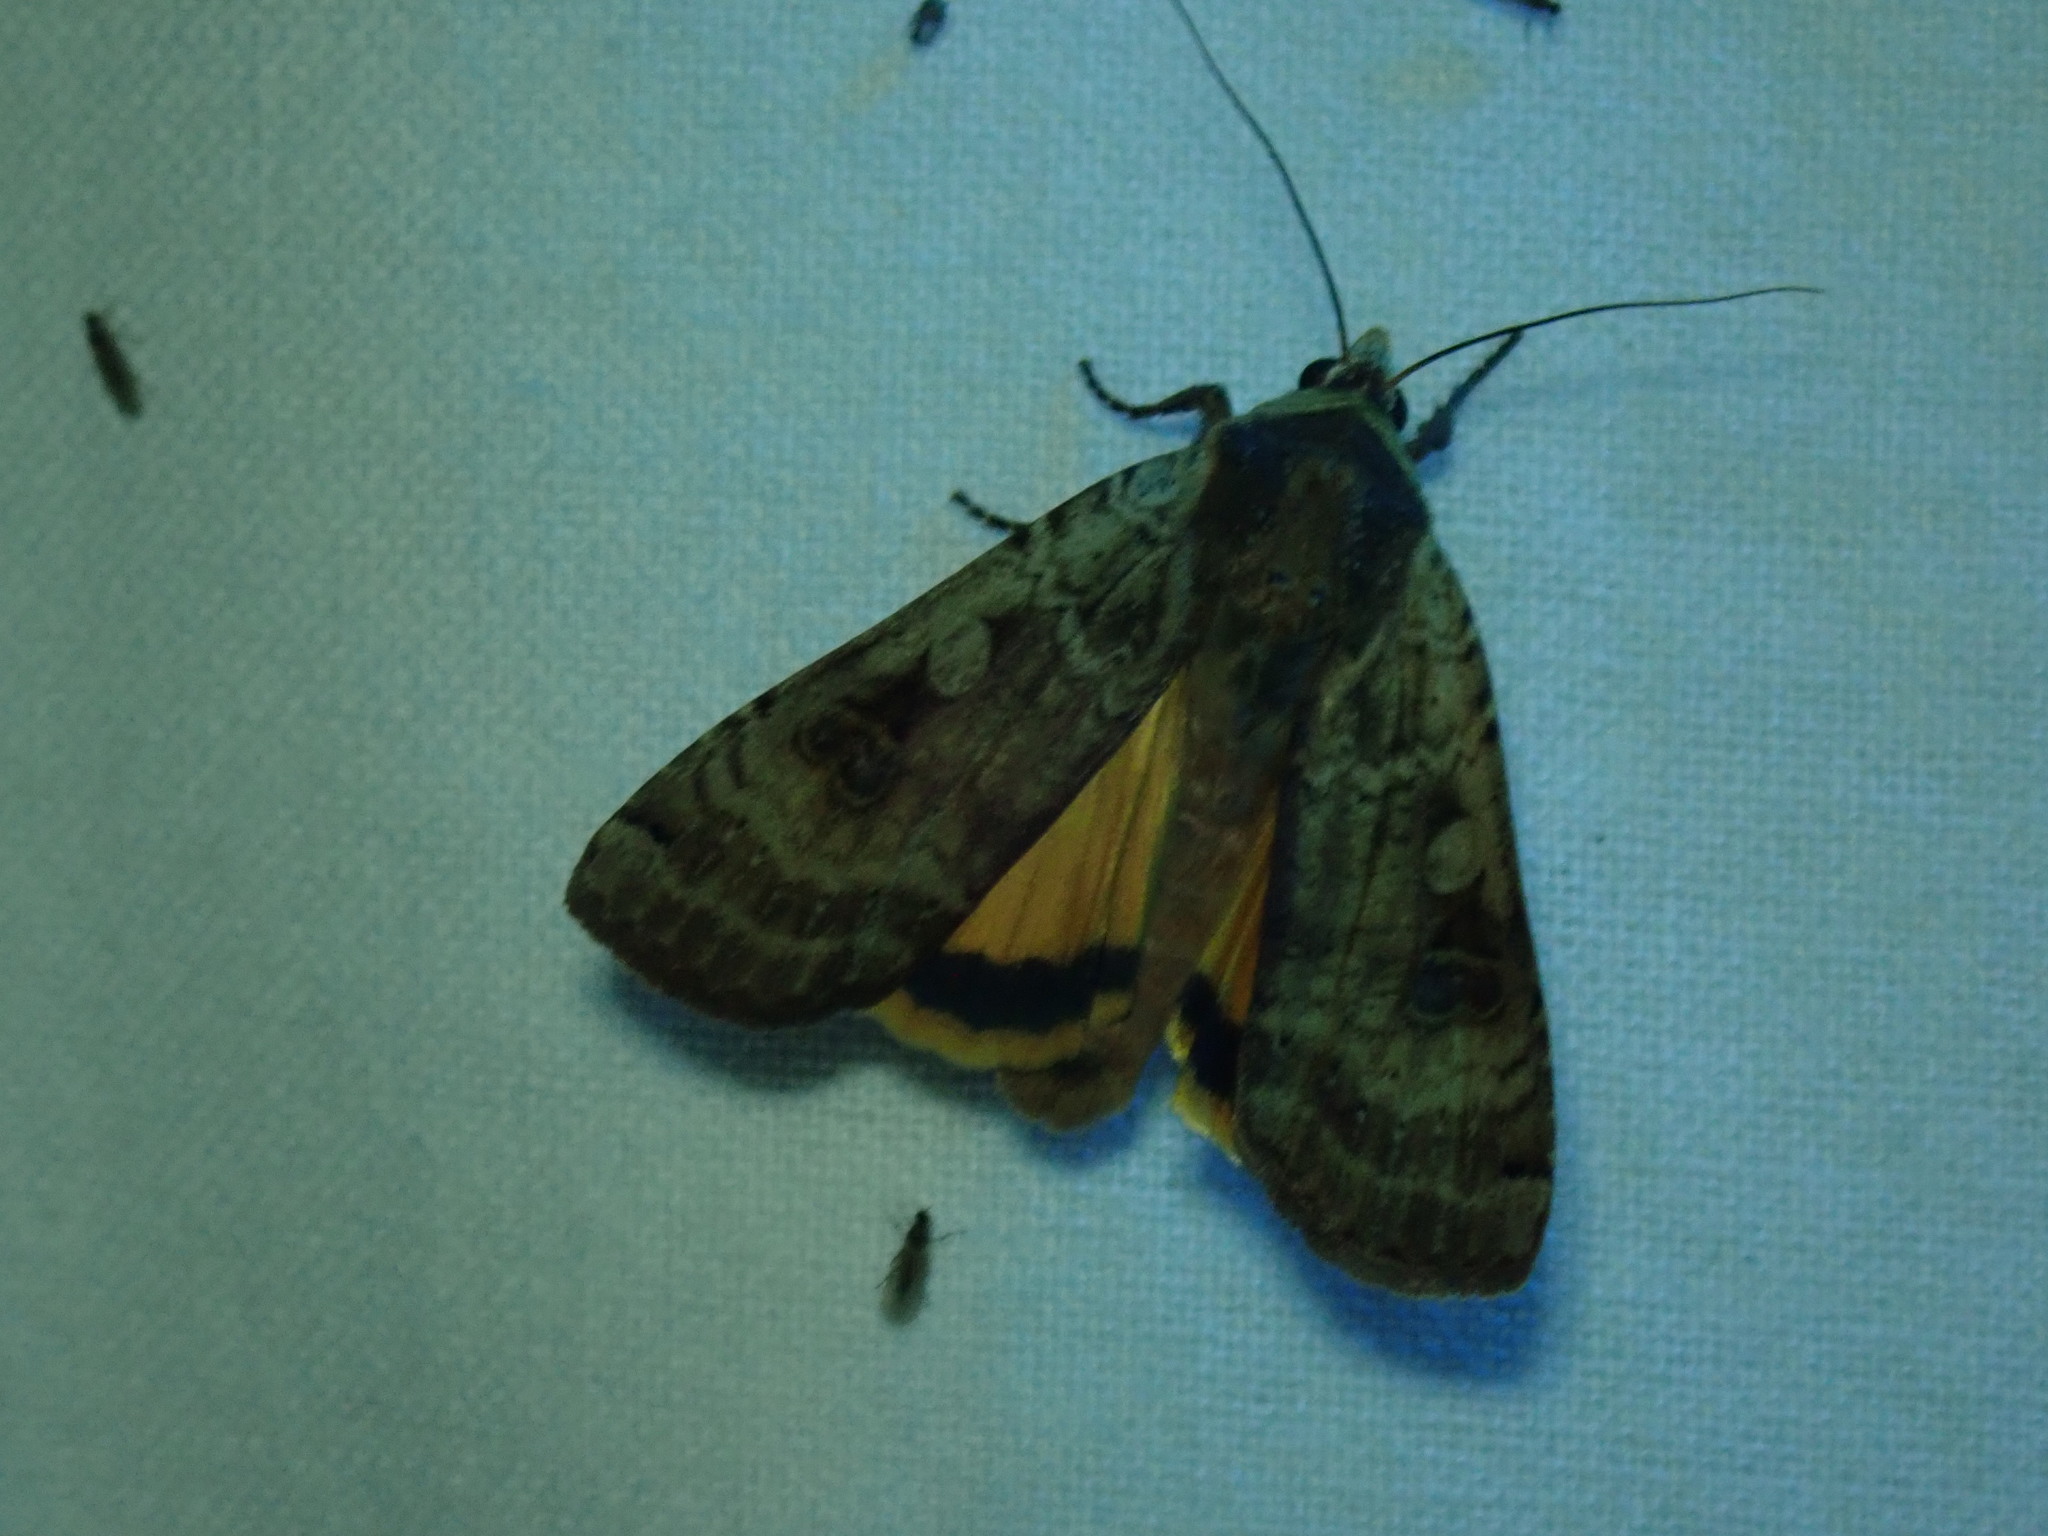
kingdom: Animalia
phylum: Arthropoda
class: Insecta
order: Lepidoptera
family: Noctuidae
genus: Noctua
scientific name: Noctua pronuba
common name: Large yellow underwing
